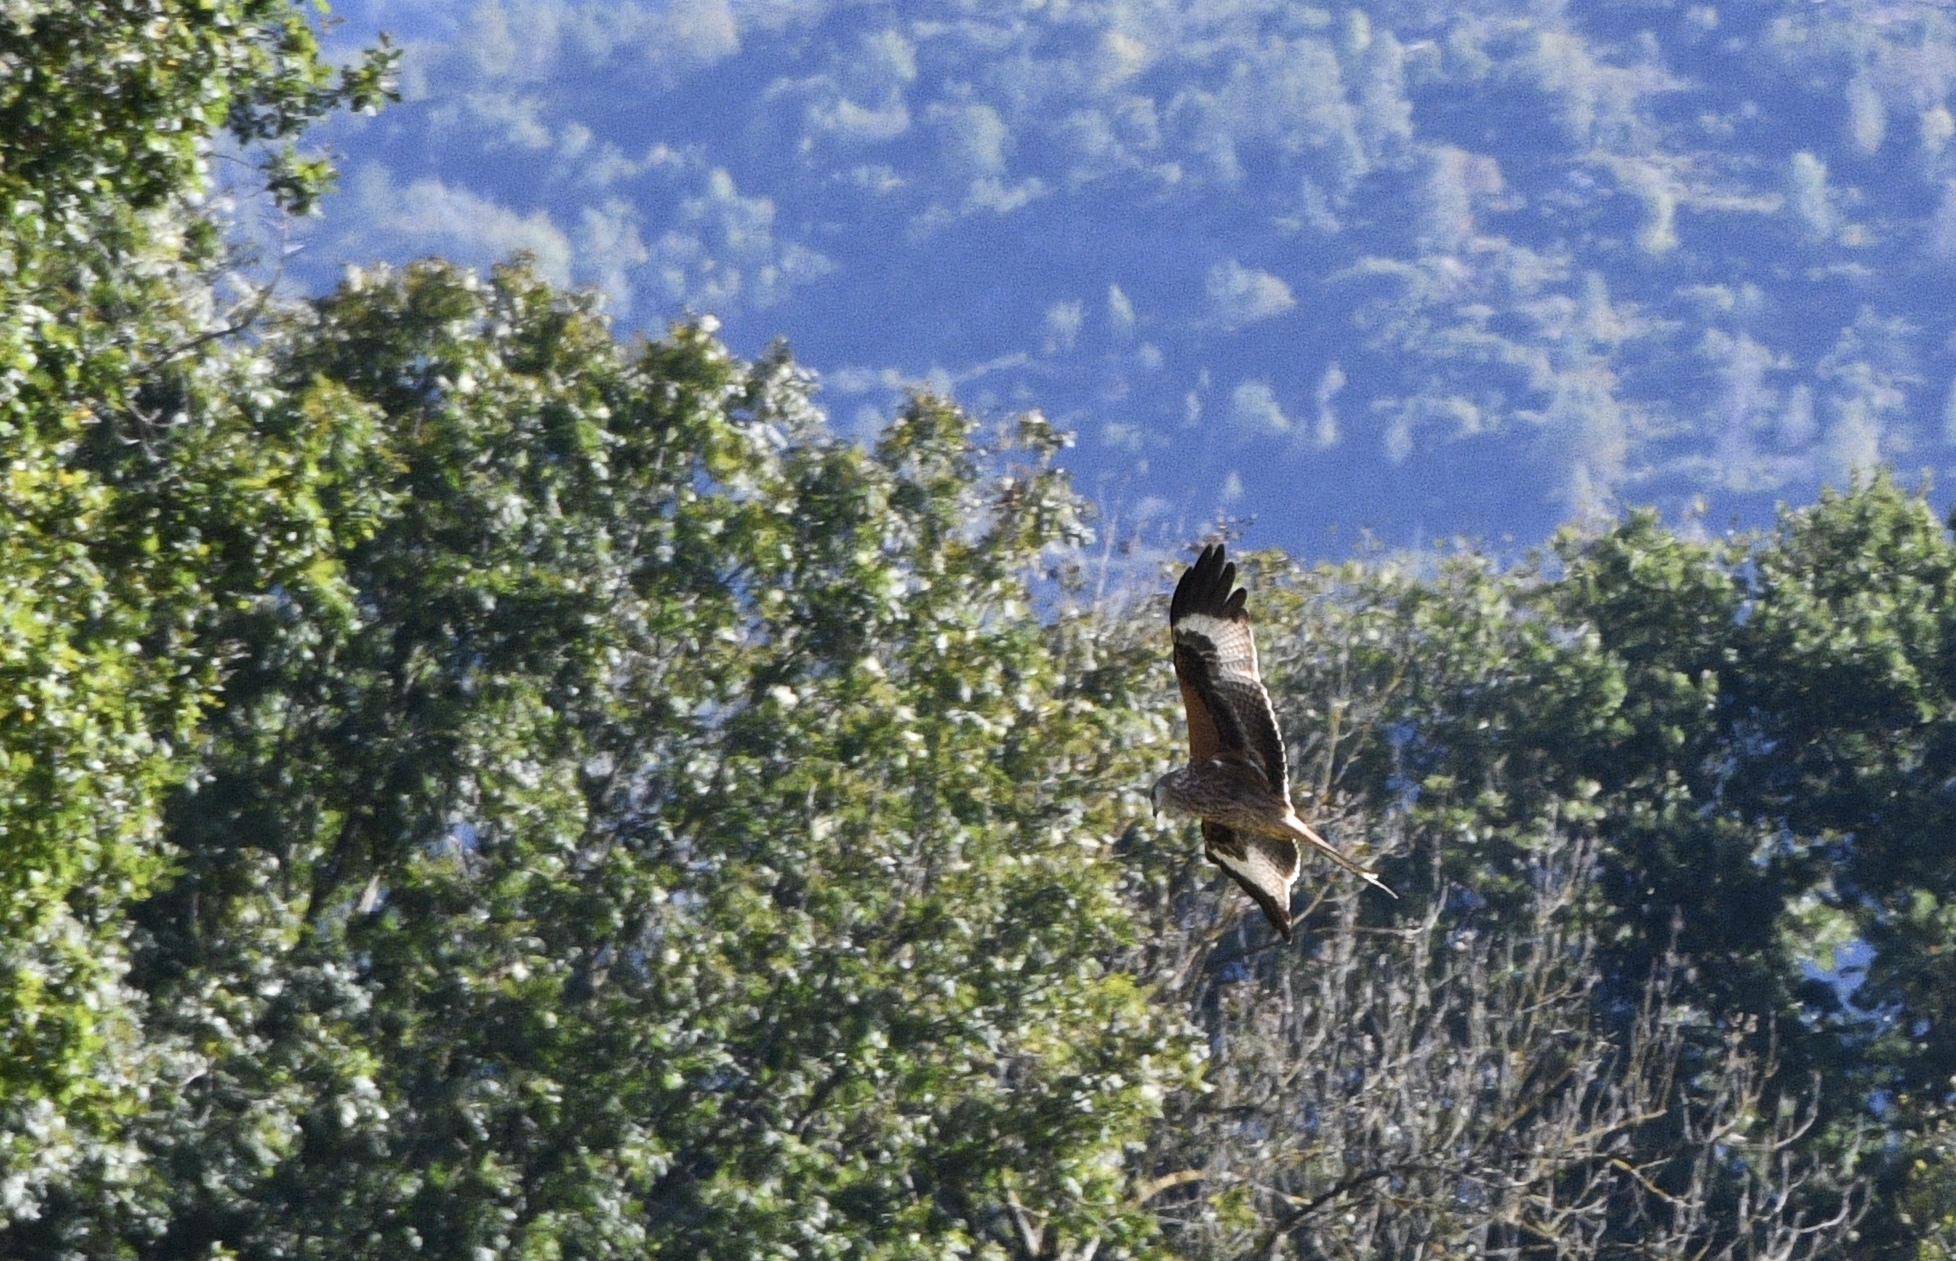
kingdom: Animalia
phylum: Chordata
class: Aves
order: Accipitriformes
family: Accipitridae
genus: Milvus
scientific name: Milvus milvus
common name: Red kite
